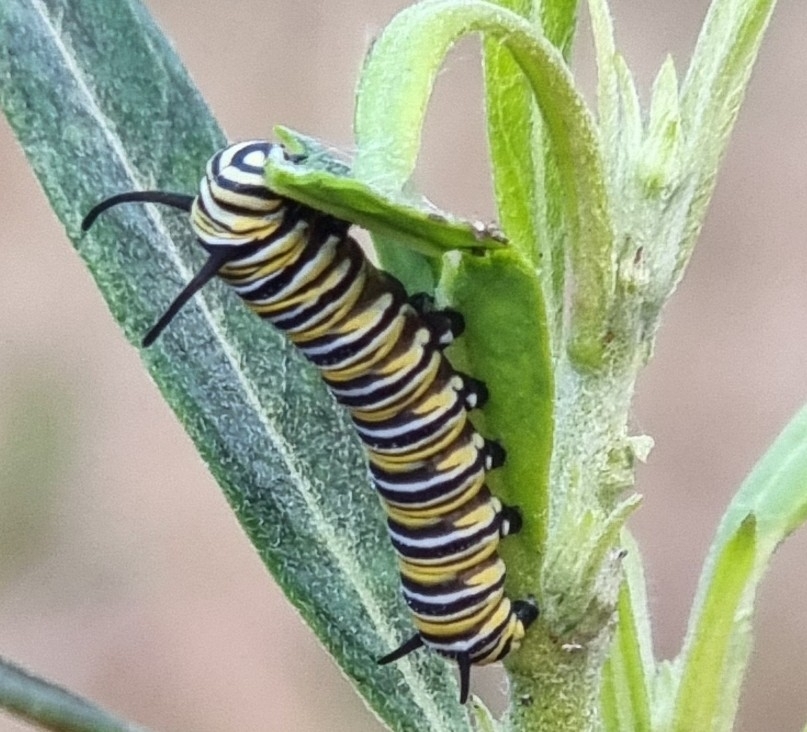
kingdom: Animalia
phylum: Arthropoda
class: Insecta
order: Lepidoptera
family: Nymphalidae
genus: Danaus
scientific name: Danaus plexippus
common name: Monarch
